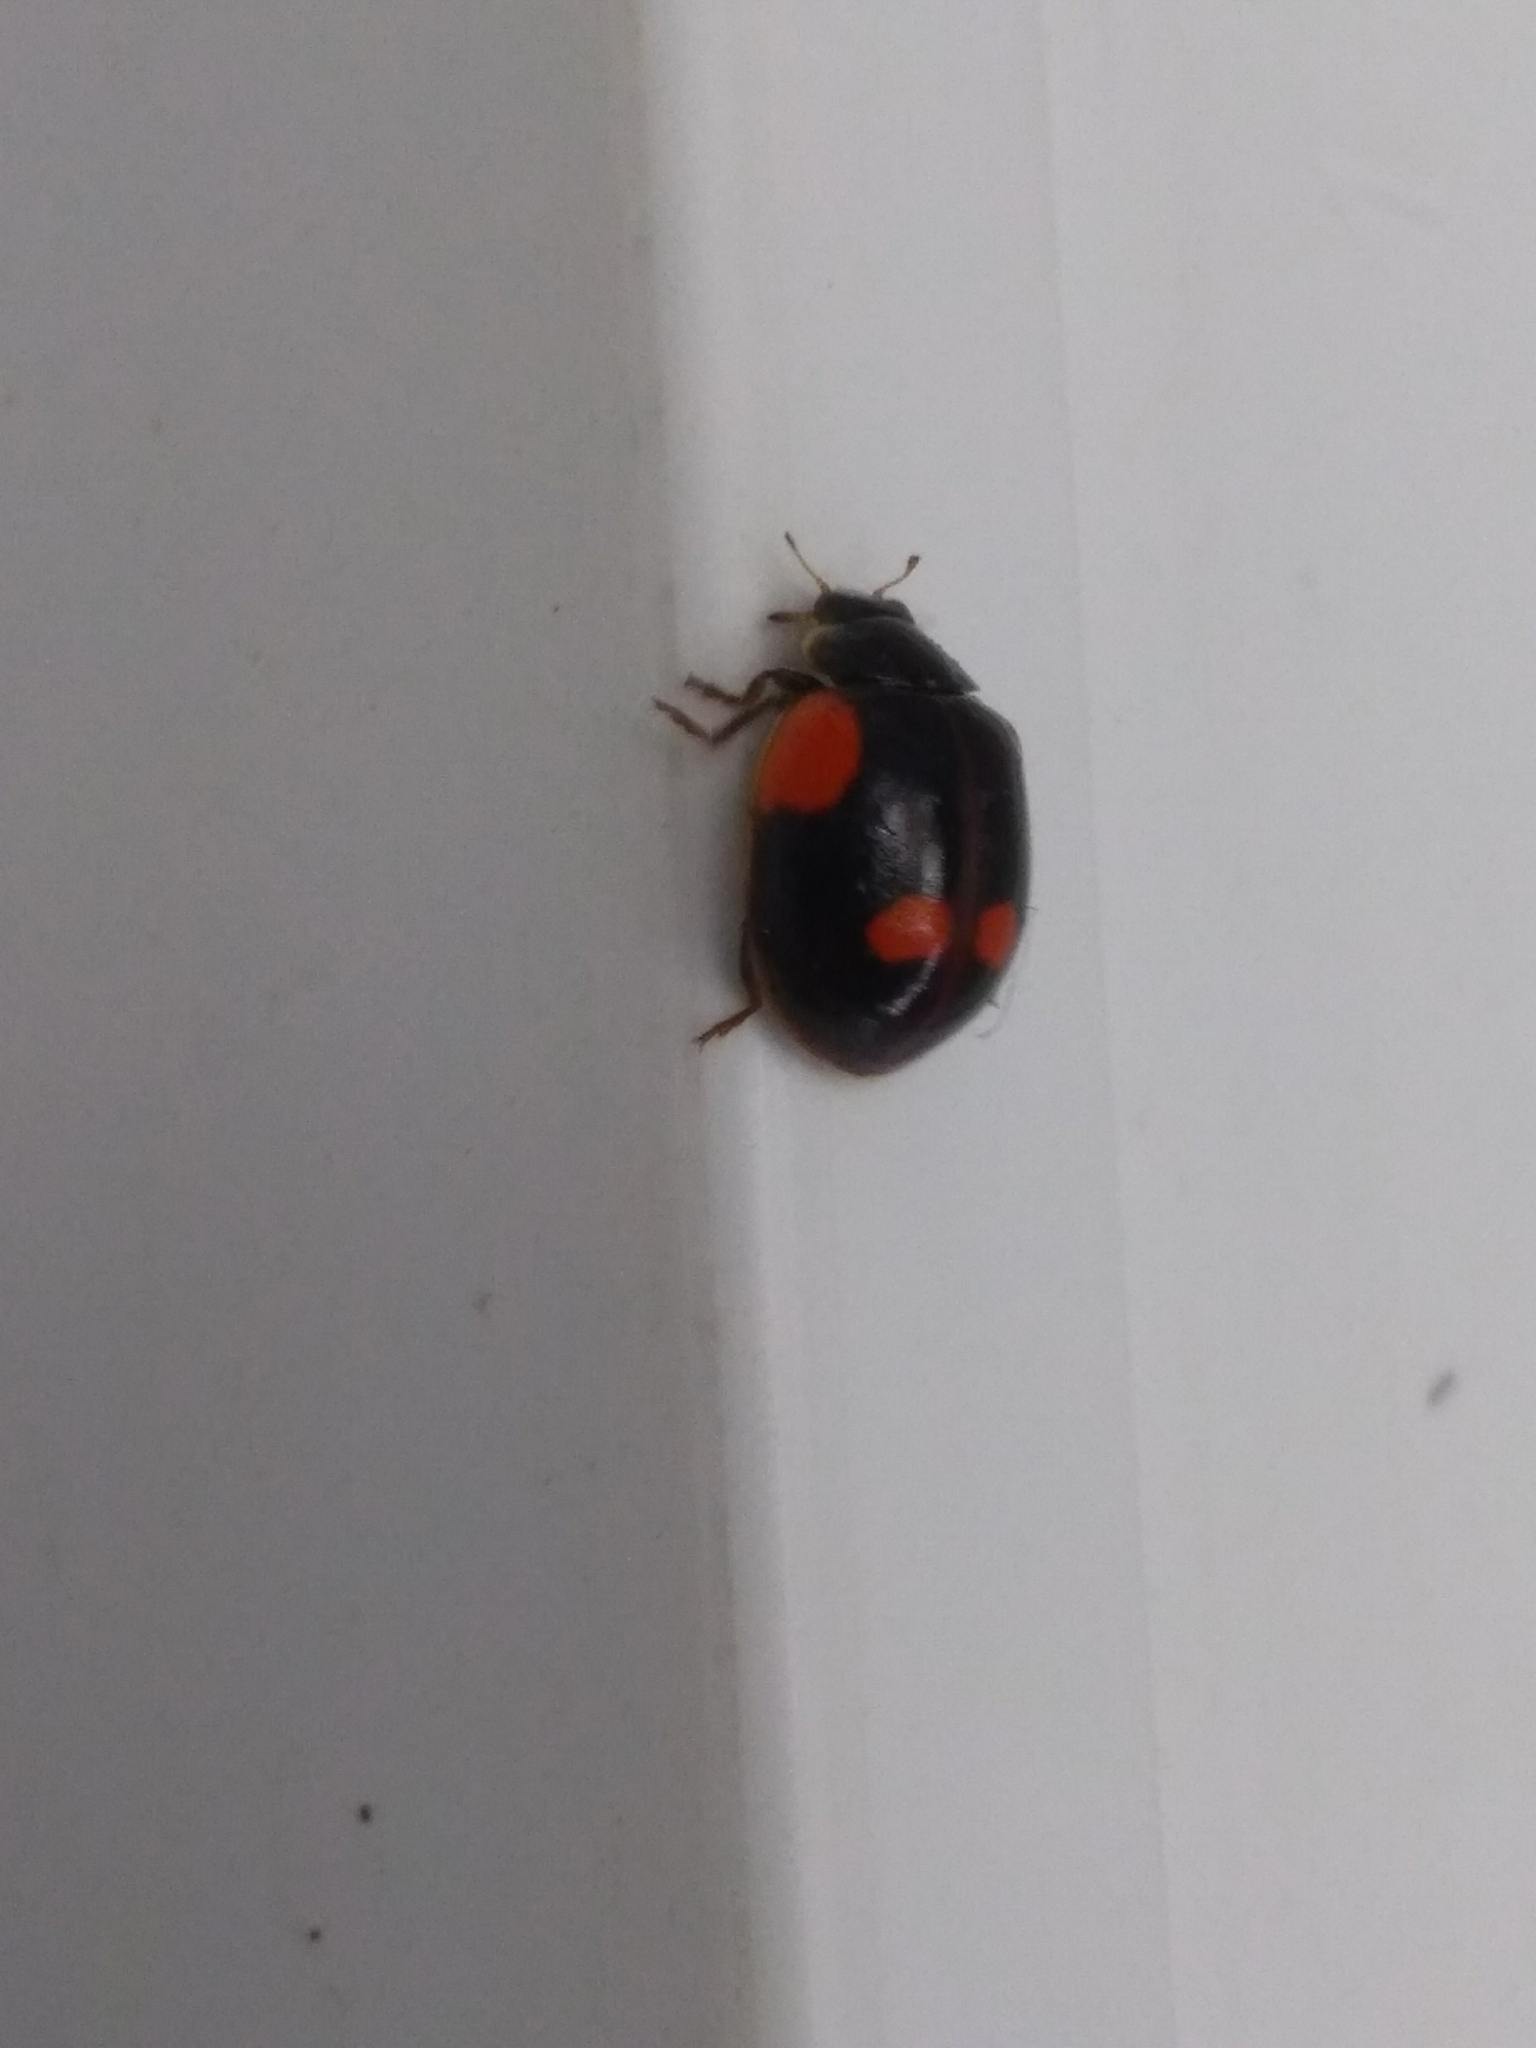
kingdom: Animalia
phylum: Arthropoda
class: Insecta
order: Coleoptera
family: Coccinellidae
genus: Adalia
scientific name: Adalia bipunctata
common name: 2-spot ladybird
